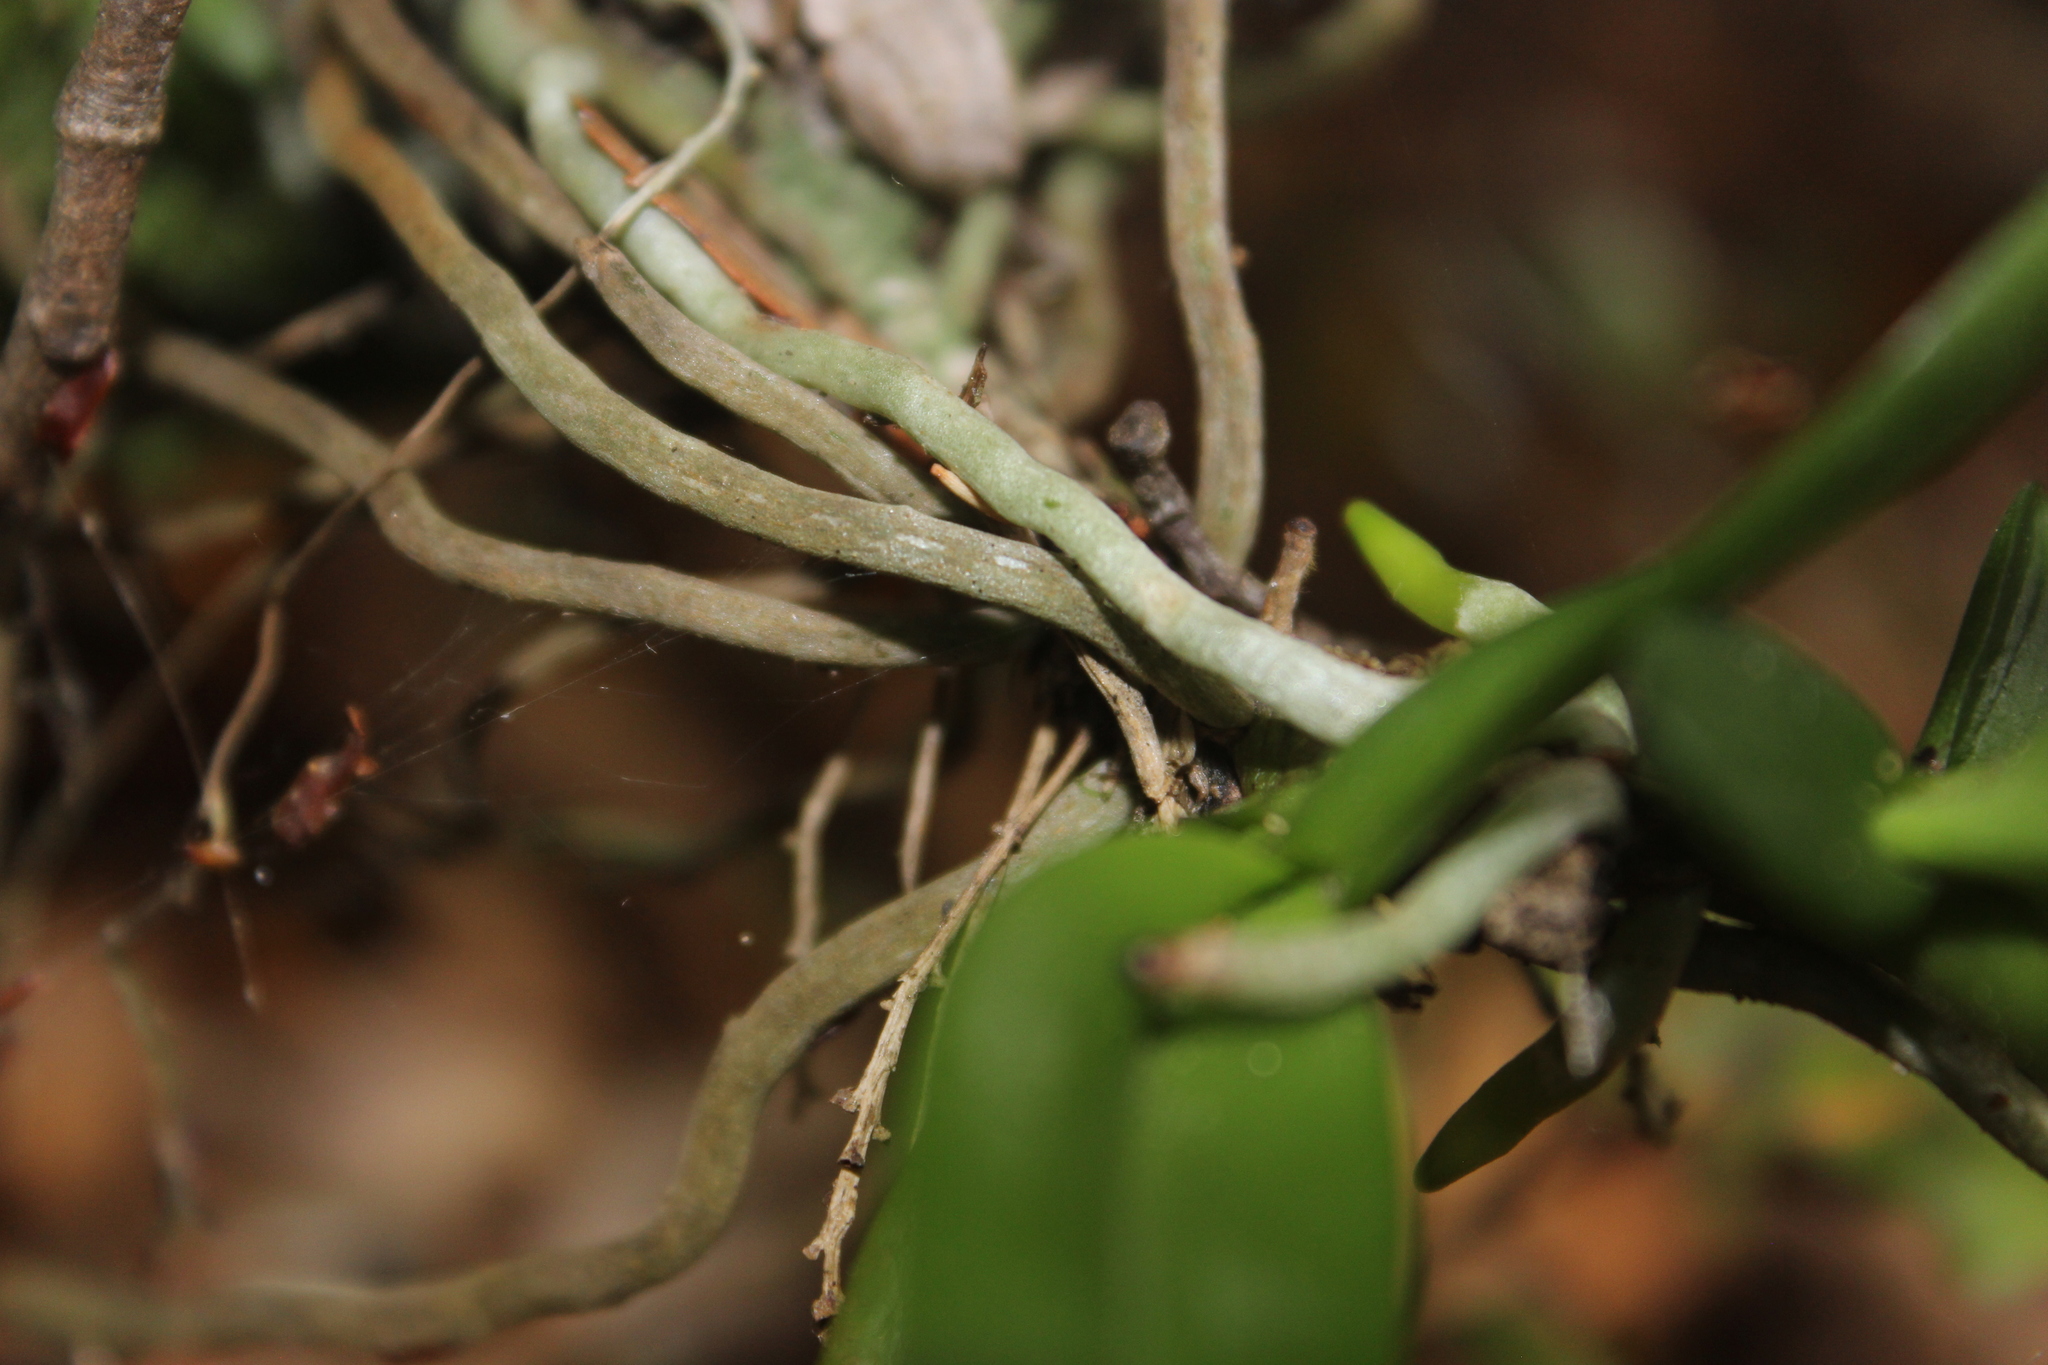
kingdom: Plantae
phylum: Tracheophyta
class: Liliopsida
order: Asparagales
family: Orchidaceae
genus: Drymoanthus
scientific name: Drymoanthus adversus
